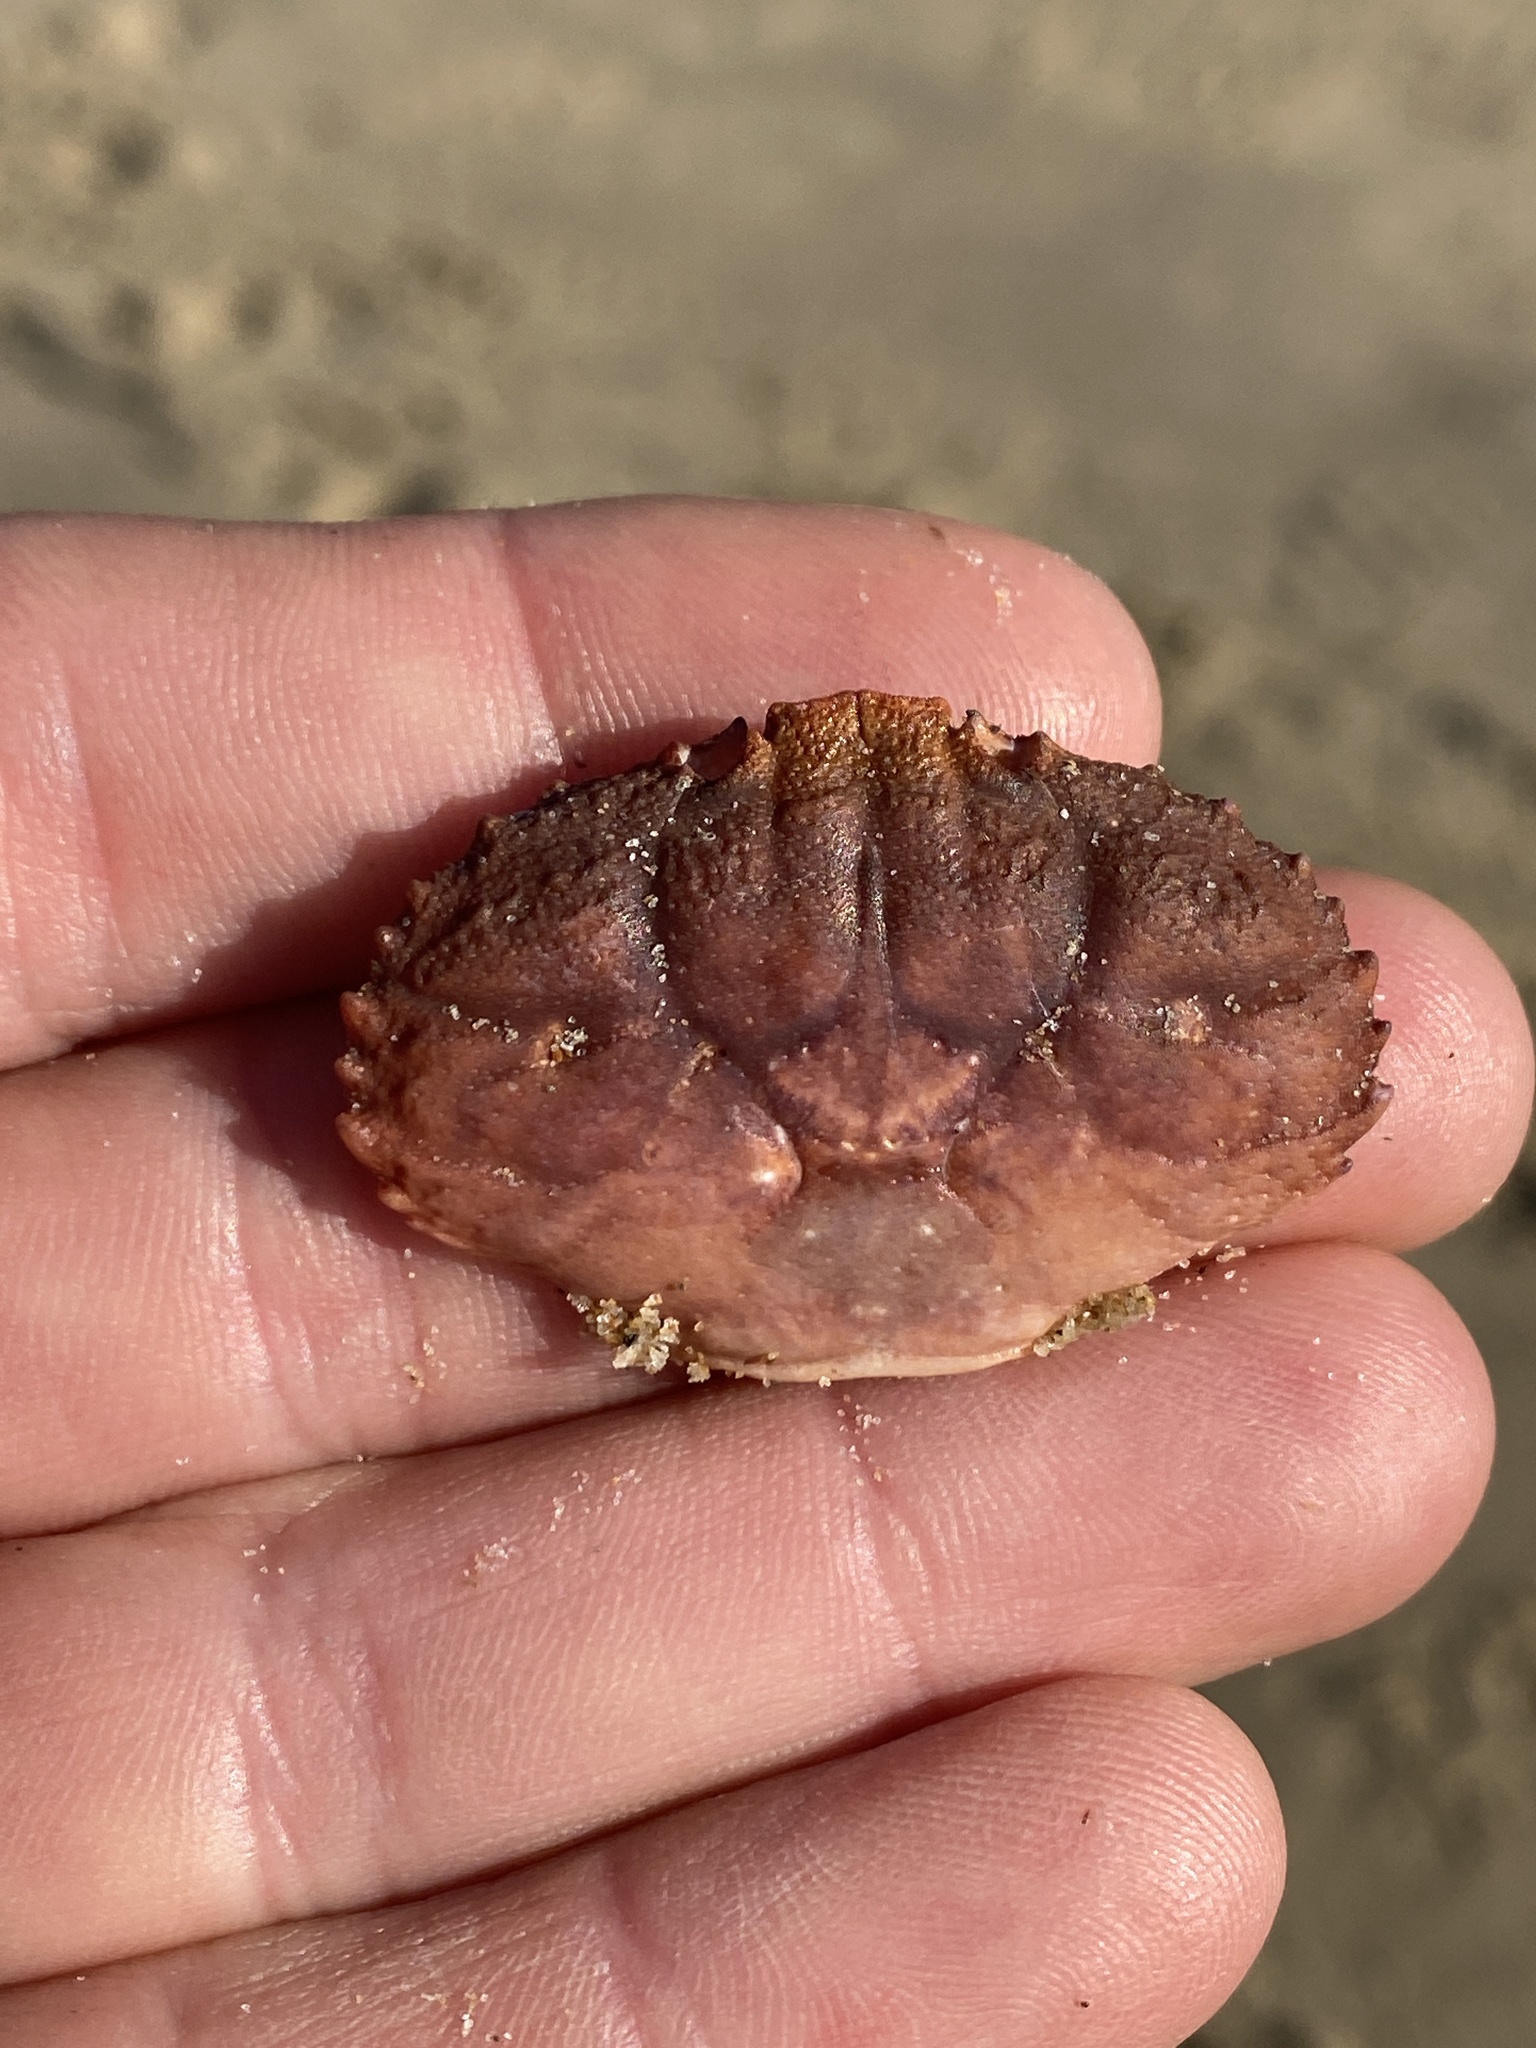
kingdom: Animalia
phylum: Arthropoda
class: Malacostraca
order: Decapoda
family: Xanthidae
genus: Cycloxanthops
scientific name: Cycloxanthops novemdentatus
